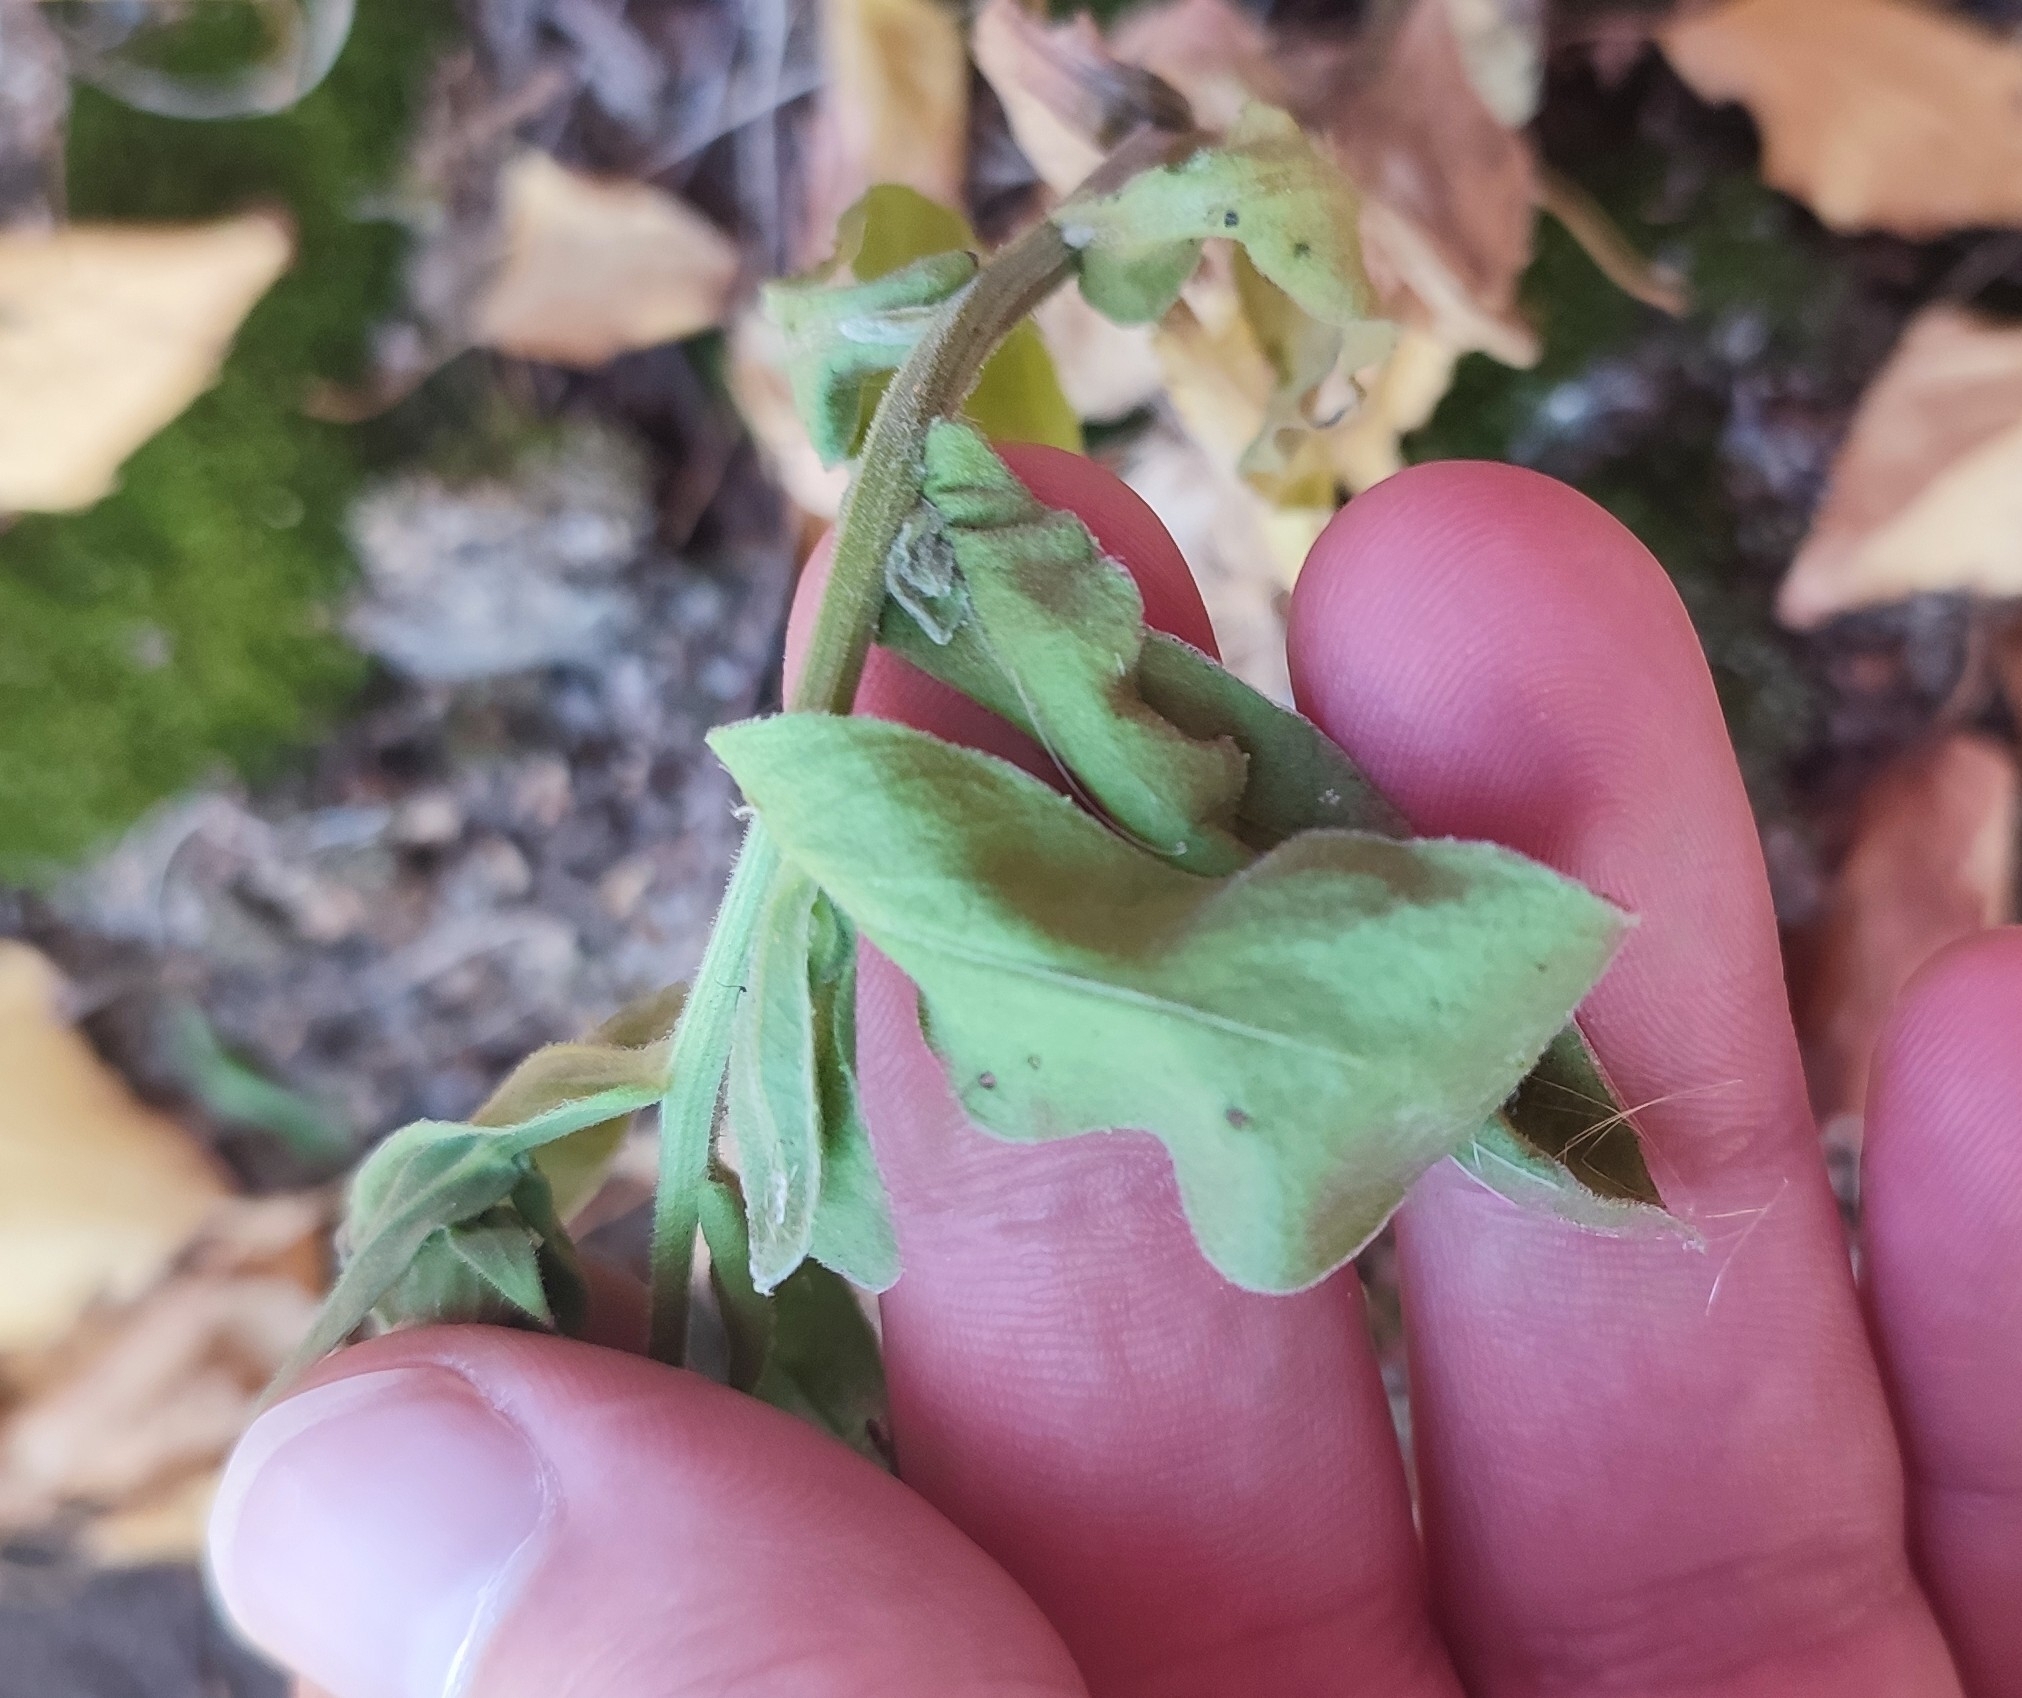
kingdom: Plantae
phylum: Tracheophyta
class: Magnoliopsida
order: Asterales
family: Asteraceae
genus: Calendula
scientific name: Calendula officinalis
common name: Pot marigold
